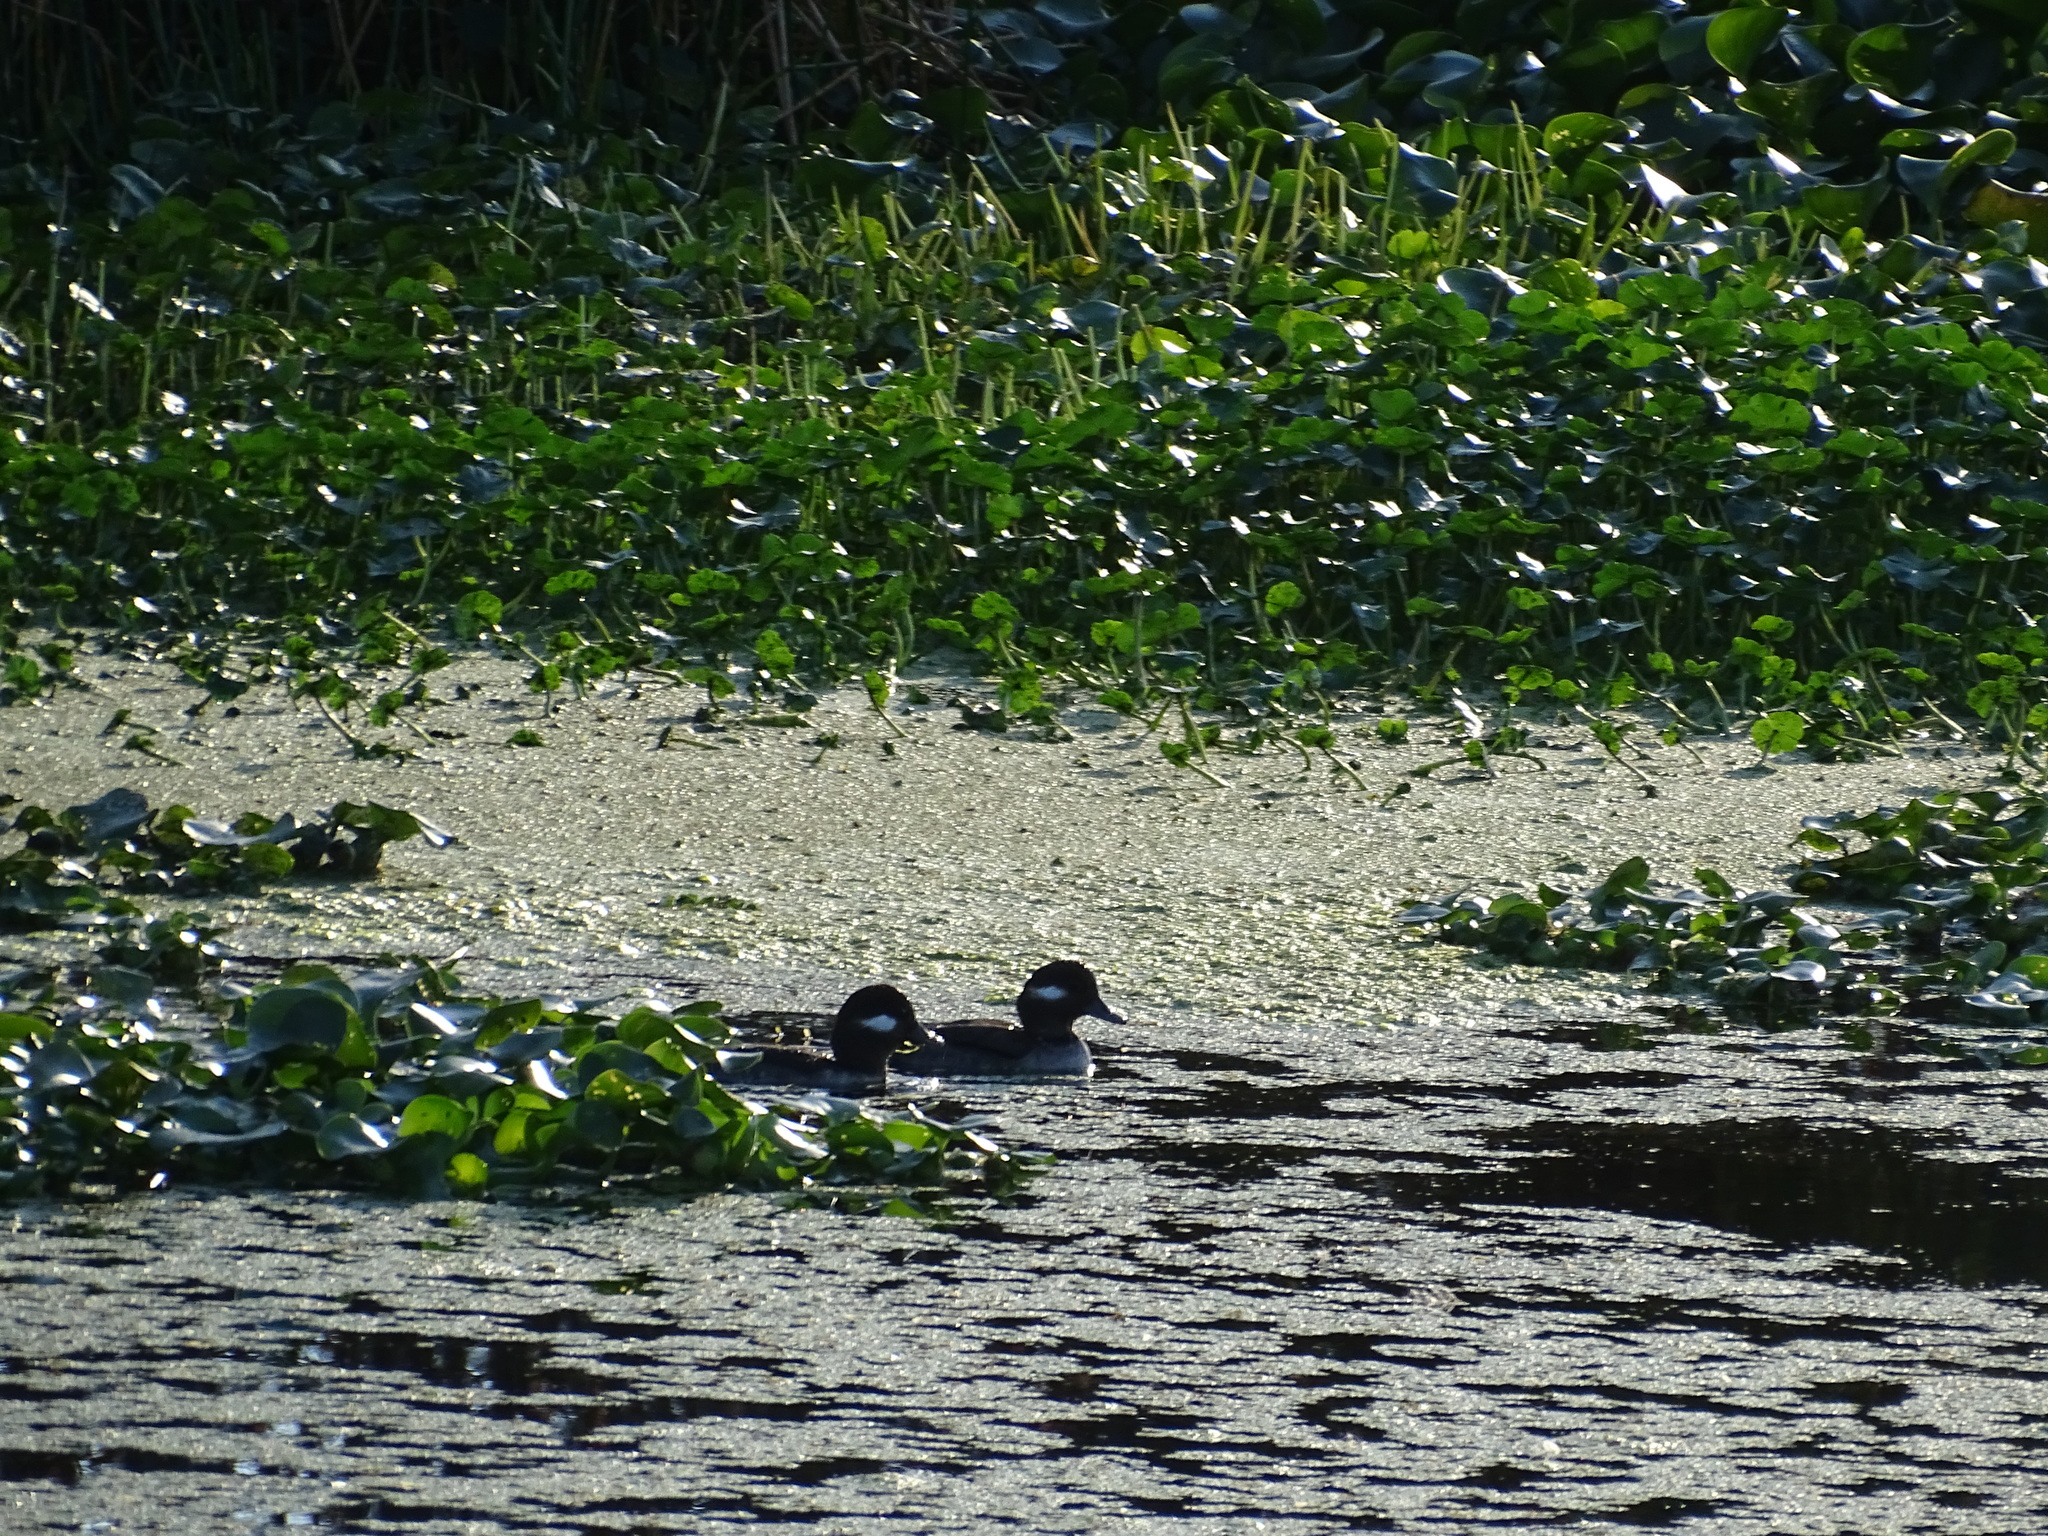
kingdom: Animalia
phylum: Chordata
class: Aves
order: Anseriformes
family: Anatidae
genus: Bucephala
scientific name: Bucephala albeola
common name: Bufflehead
